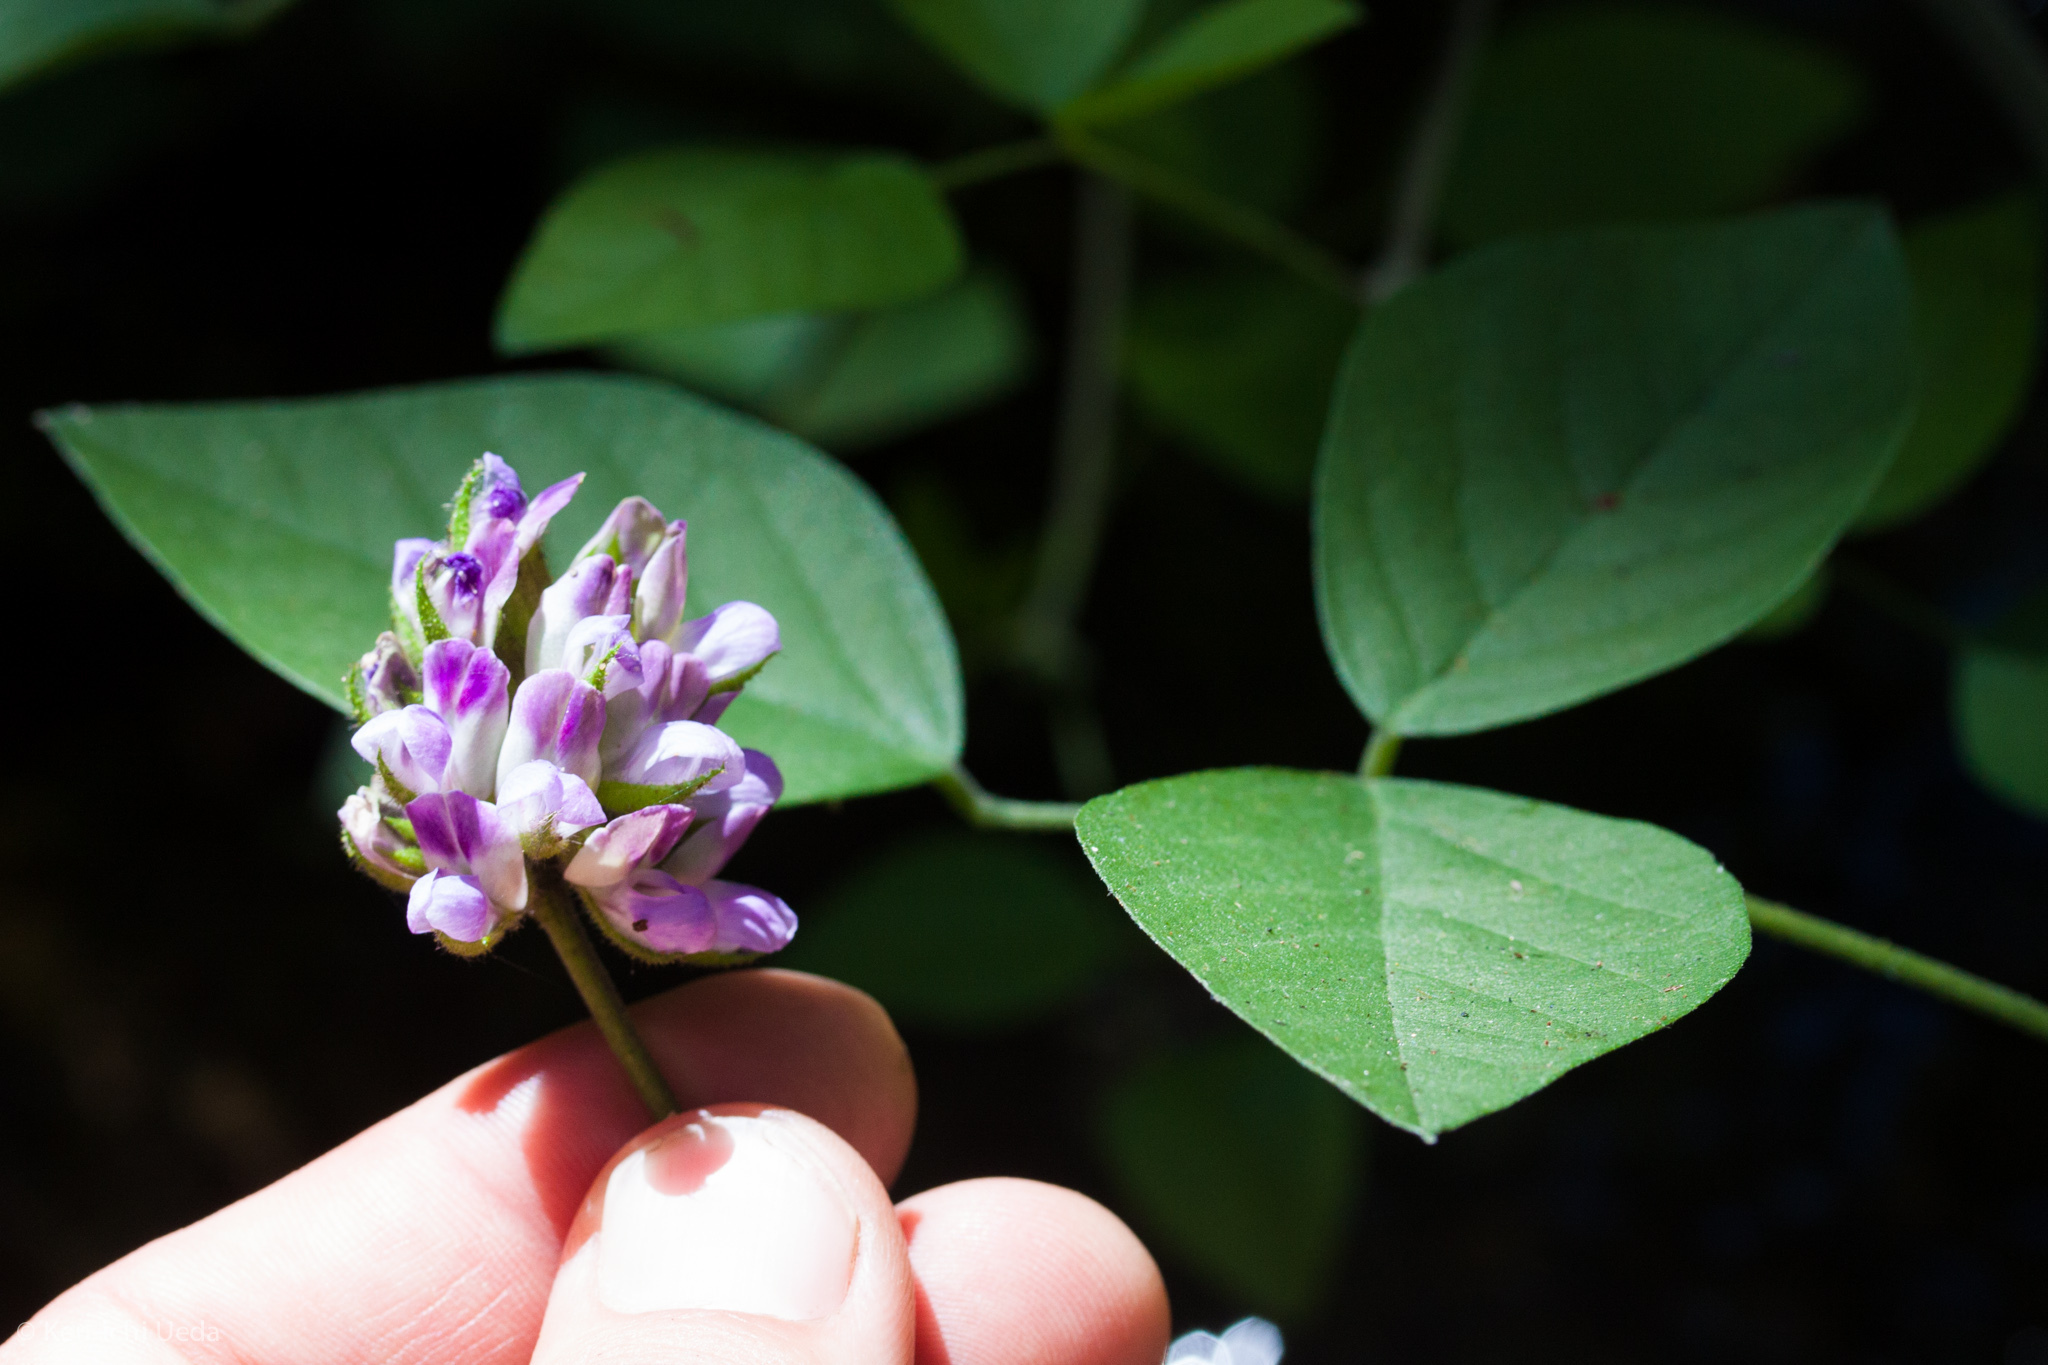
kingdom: Plantae
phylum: Tracheophyta
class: Magnoliopsida
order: Fabales
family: Fabaceae
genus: Hoita
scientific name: Hoita macrostachya
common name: Leatherroot
